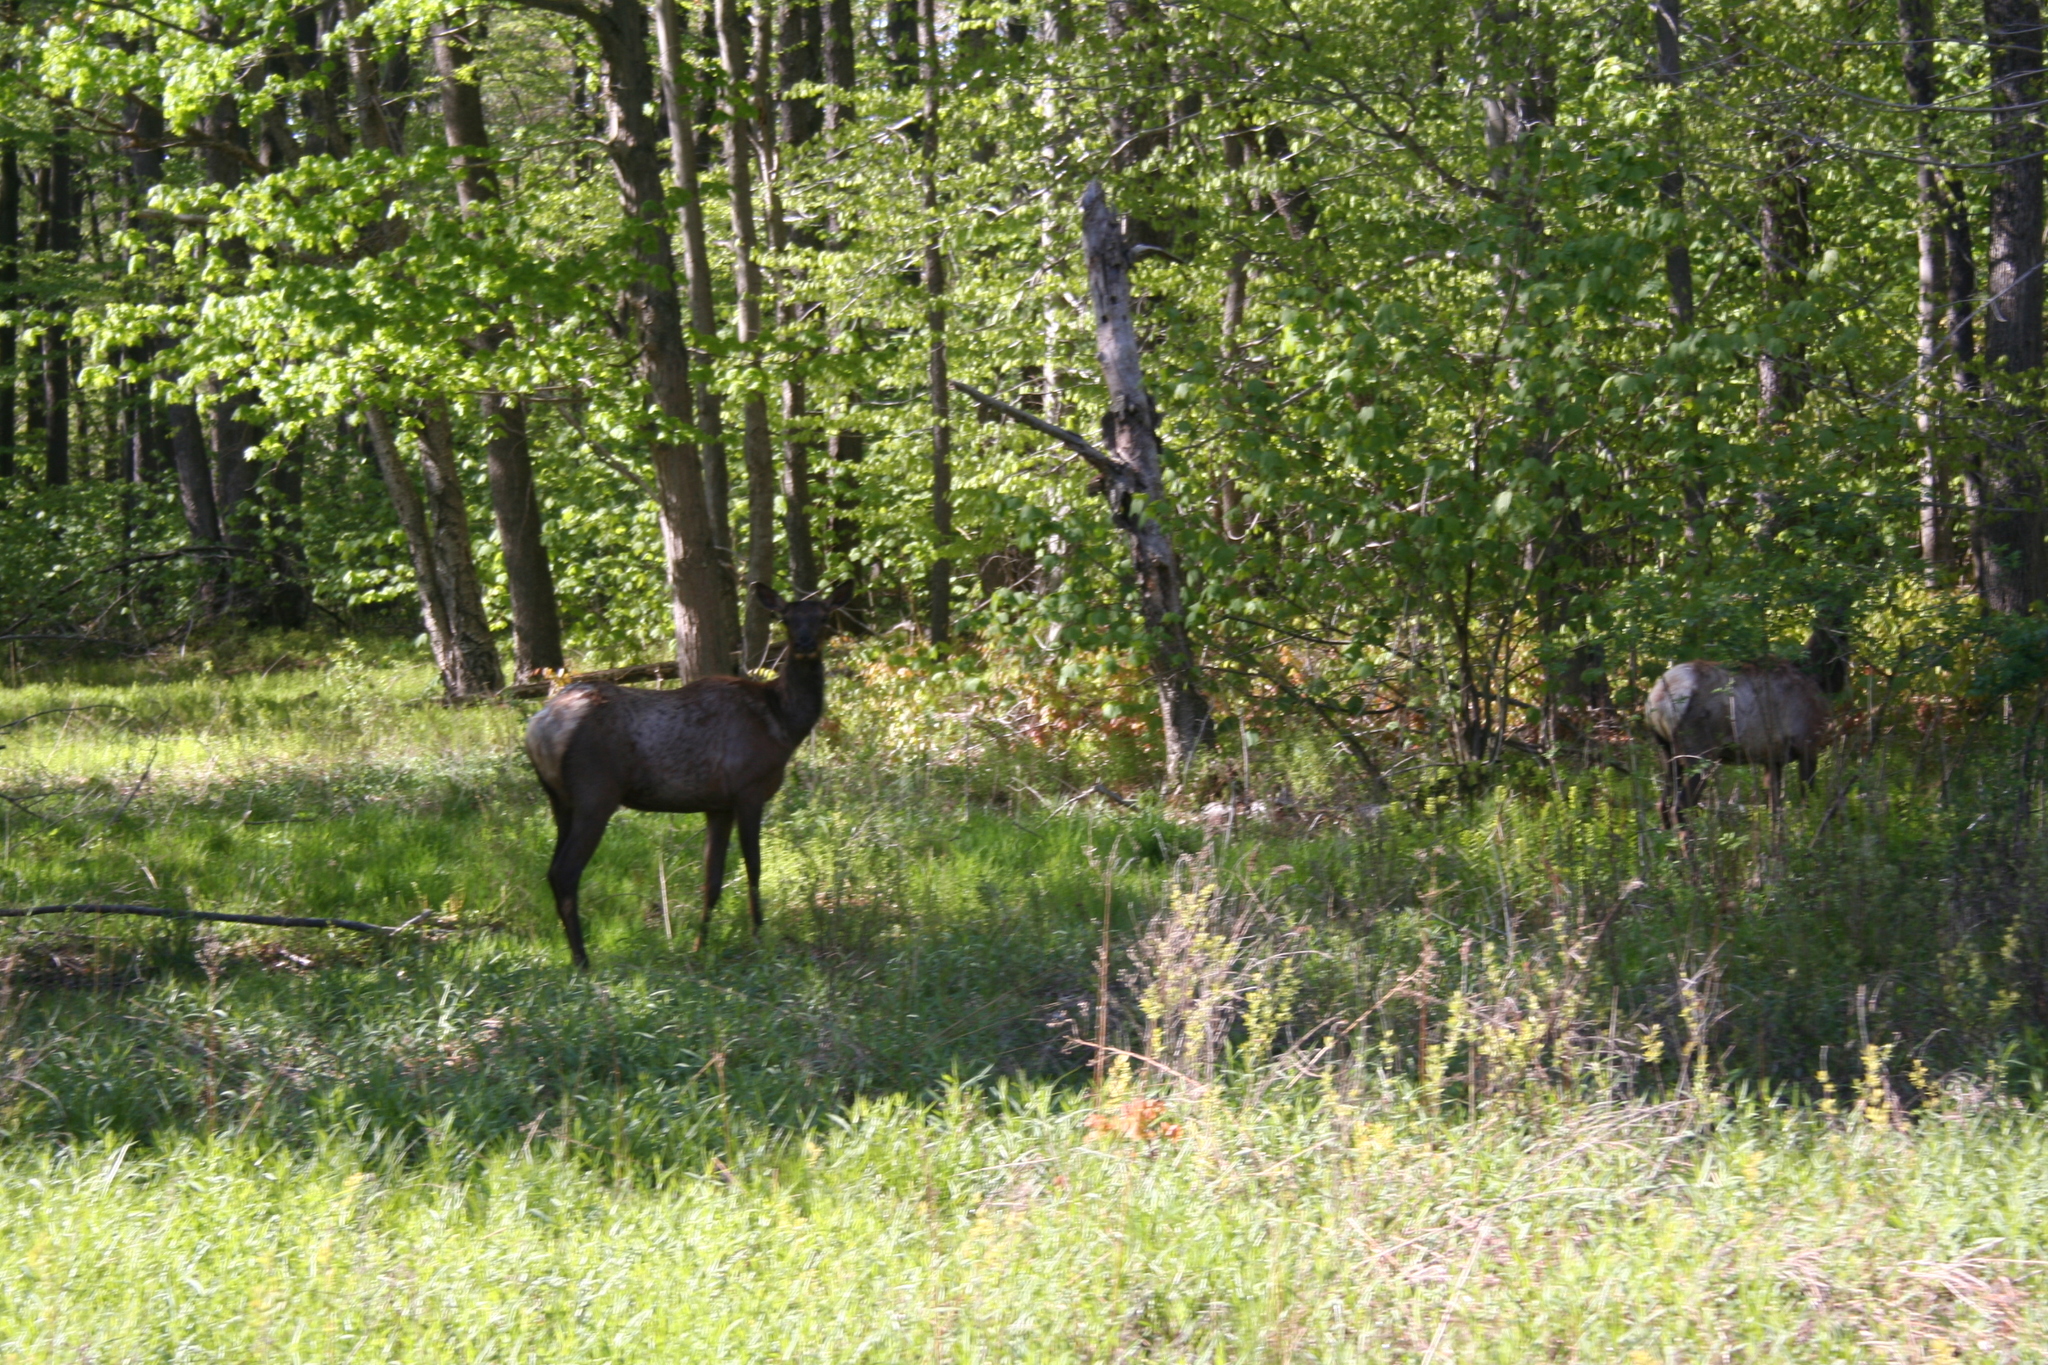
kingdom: Animalia
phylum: Chordata
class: Mammalia
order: Artiodactyla
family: Cervidae
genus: Cervus
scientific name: Cervus elaphus
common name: Red deer
